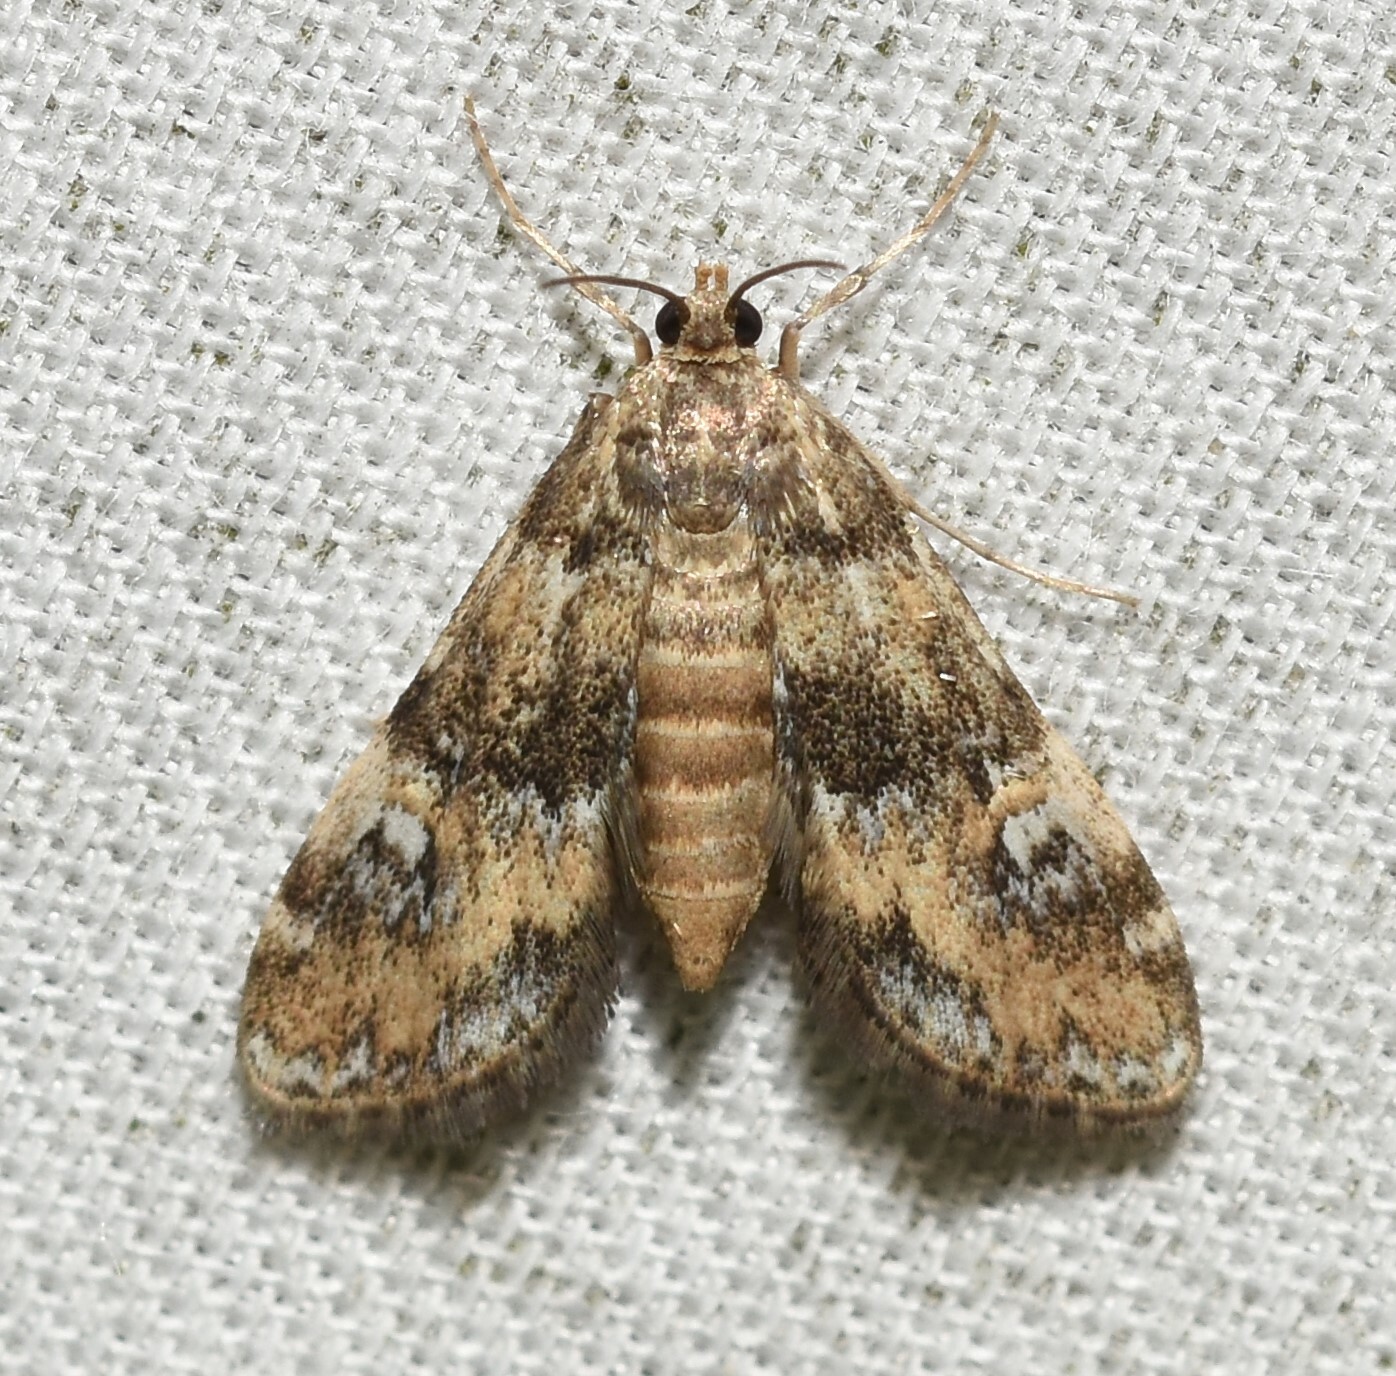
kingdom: Animalia
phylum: Arthropoda
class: Insecta
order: Lepidoptera
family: Crambidae
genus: Elophila
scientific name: Elophila obliteralis
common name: Waterlily leafcutter moth
